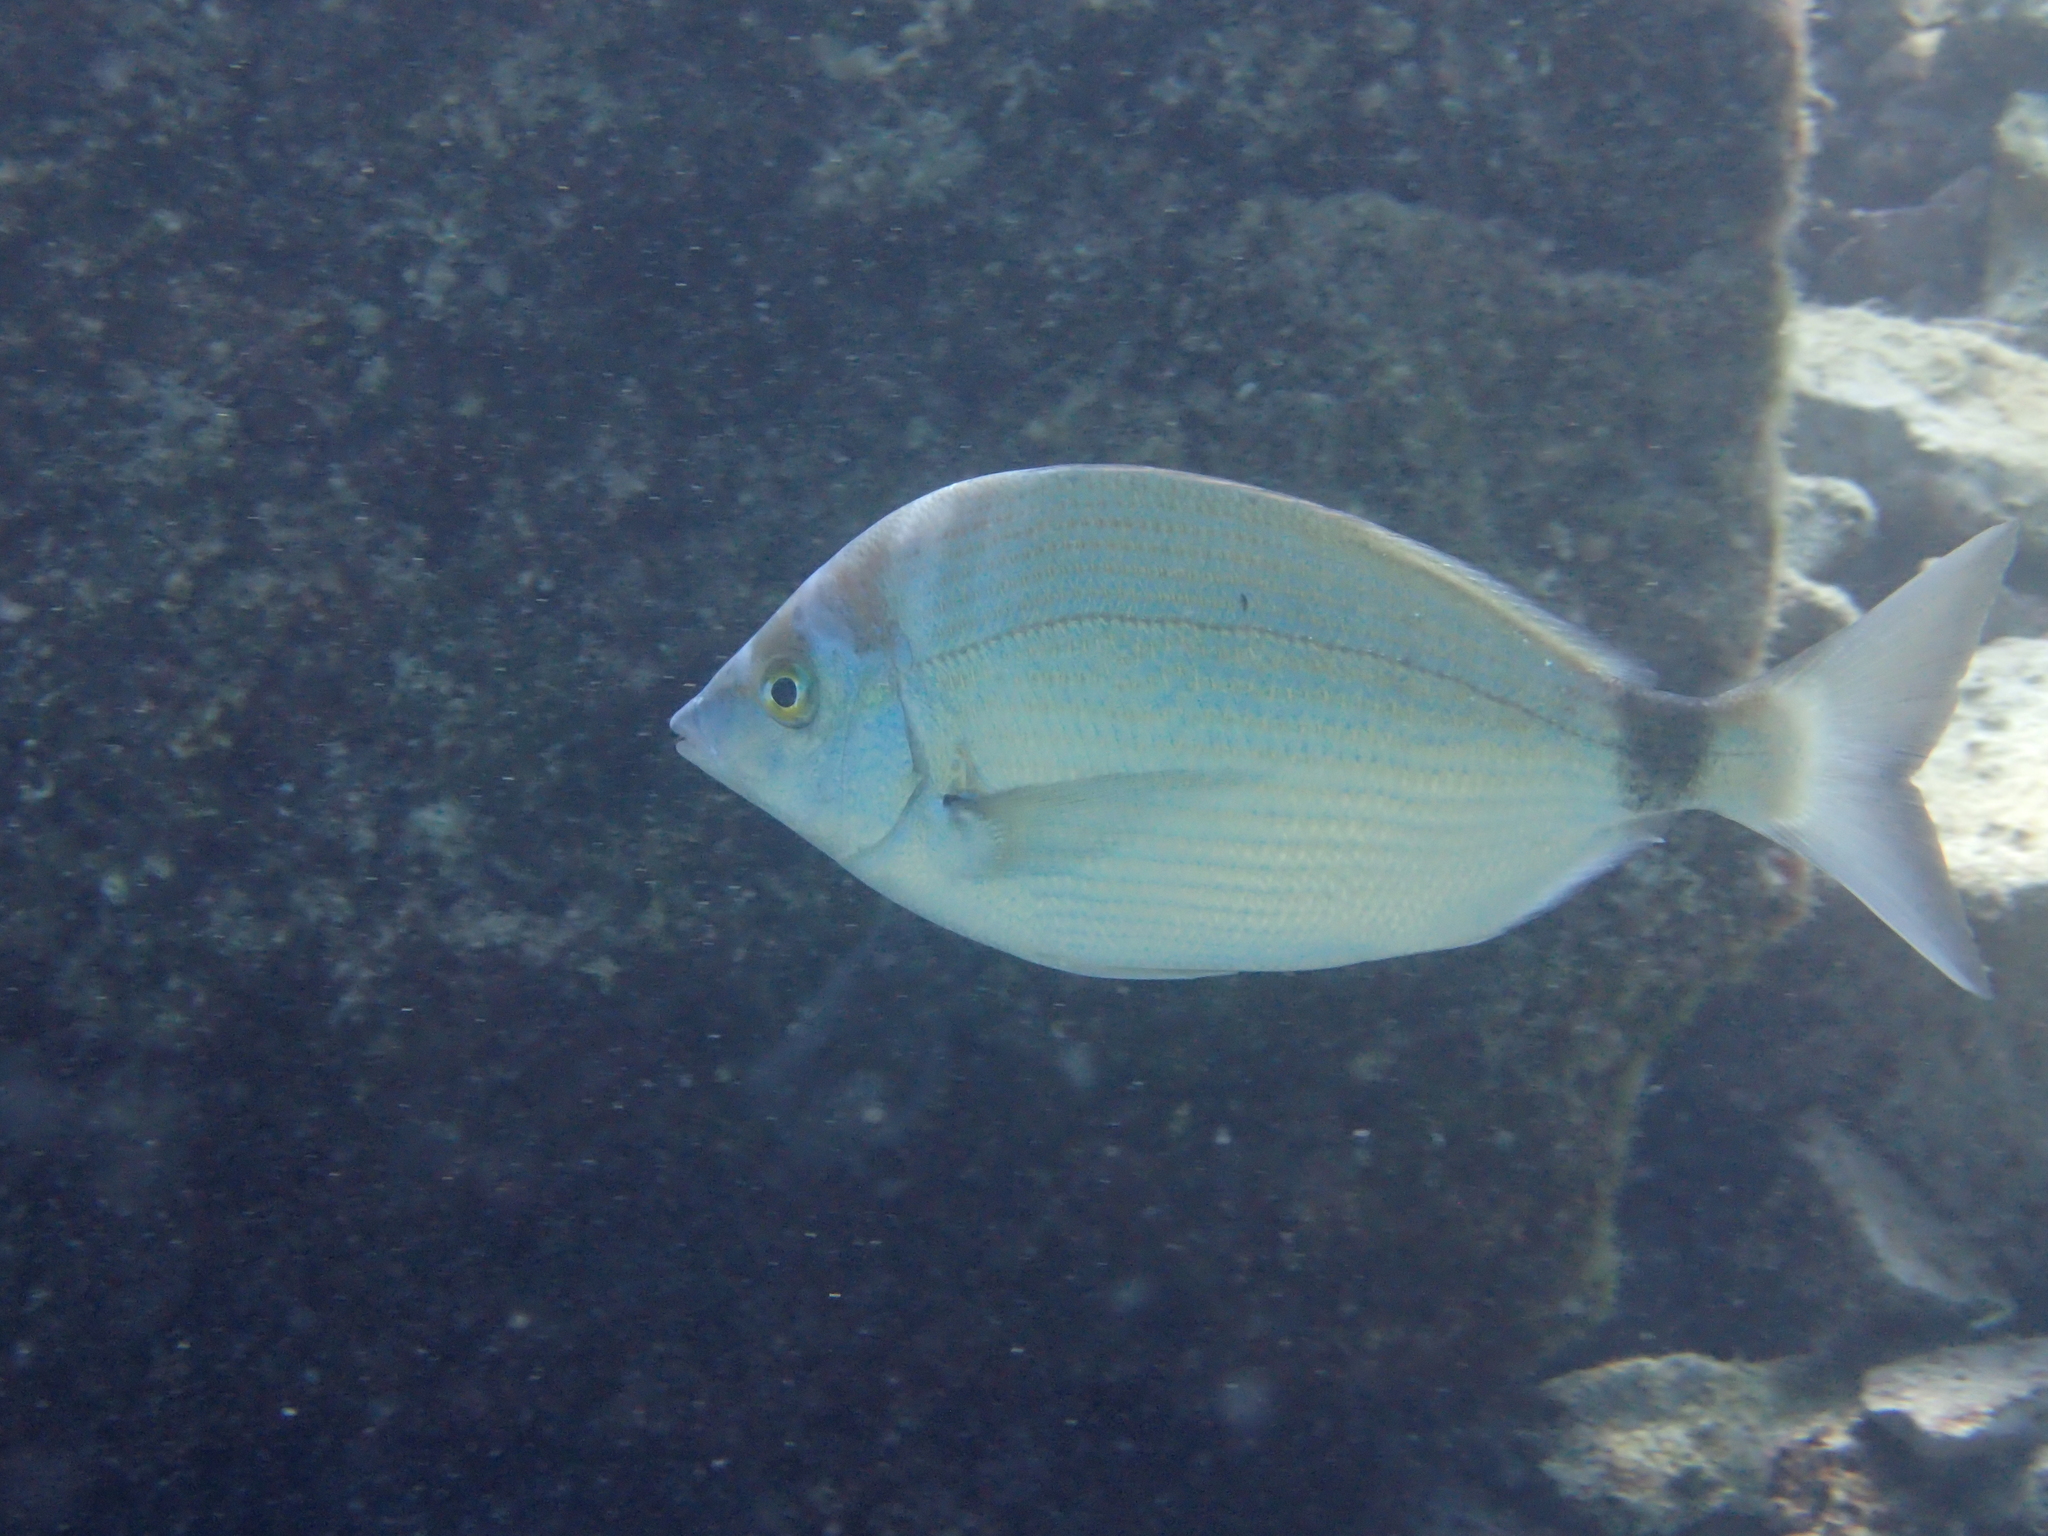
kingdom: Animalia
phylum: Chordata
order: Perciformes
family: Sparidae
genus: Diplodus
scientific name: Diplodus puntazzo
